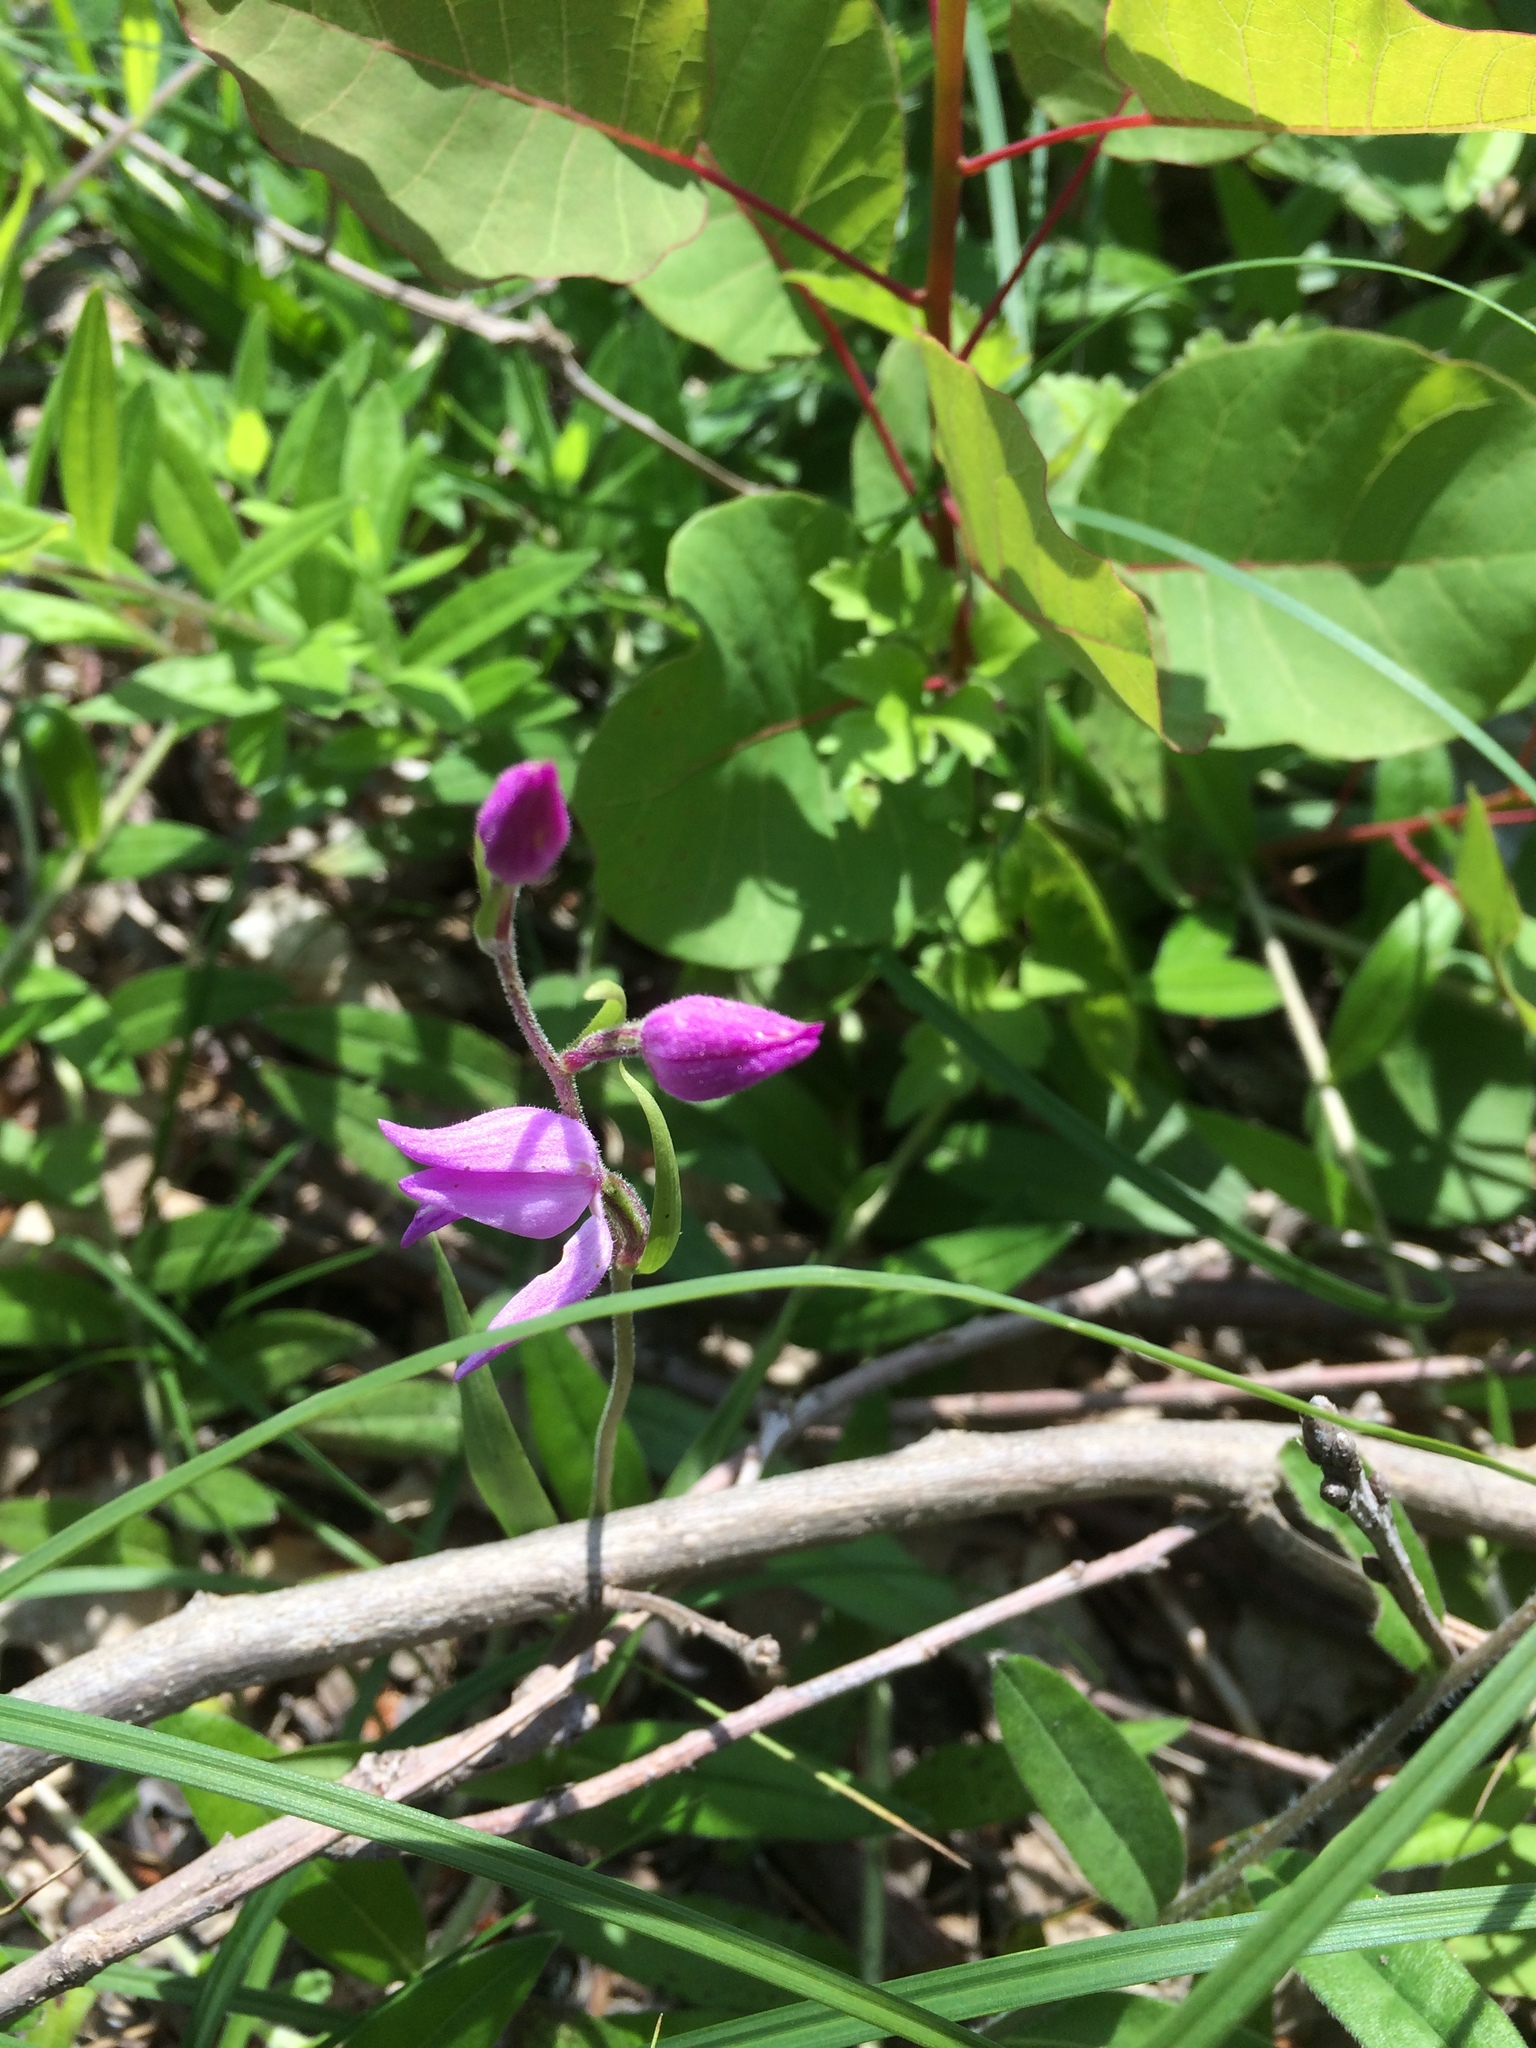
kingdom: Plantae
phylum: Tracheophyta
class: Liliopsida
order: Asparagales
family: Orchidaceae
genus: Cephalanthera
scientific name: Cephalanthera rubra
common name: Red helleborine
